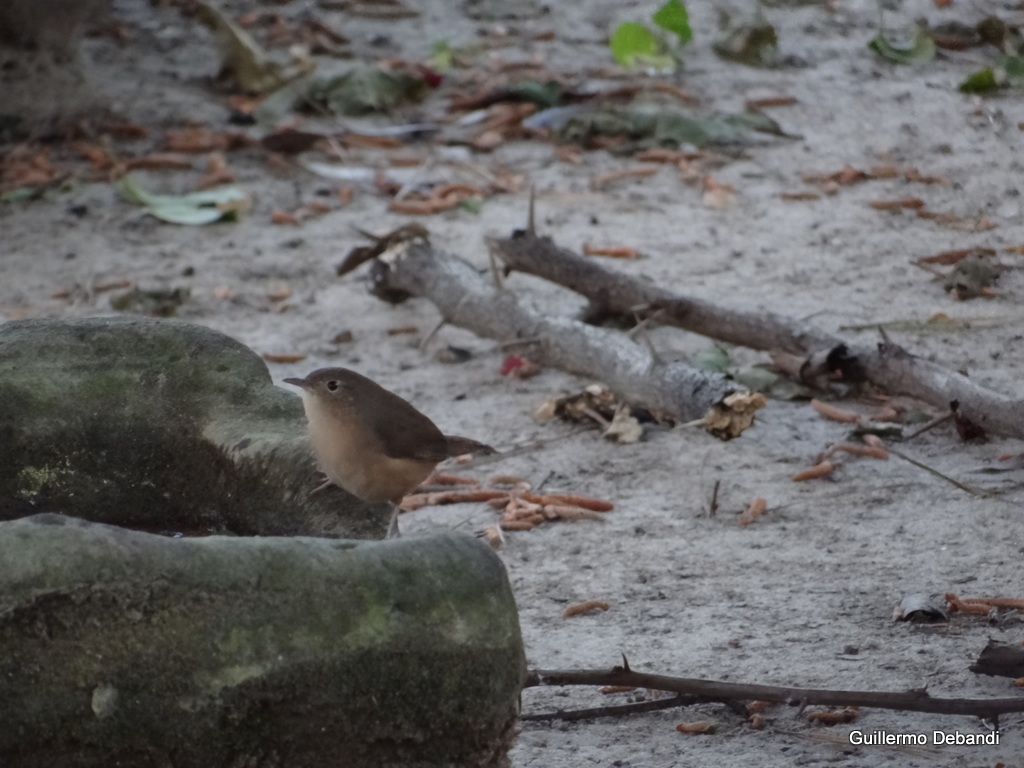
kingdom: Animalia
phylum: Chordata
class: Aves
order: Passeriformes
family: Troglodytidae
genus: Troglodytes
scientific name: Troglodytes aedon
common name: House wren
